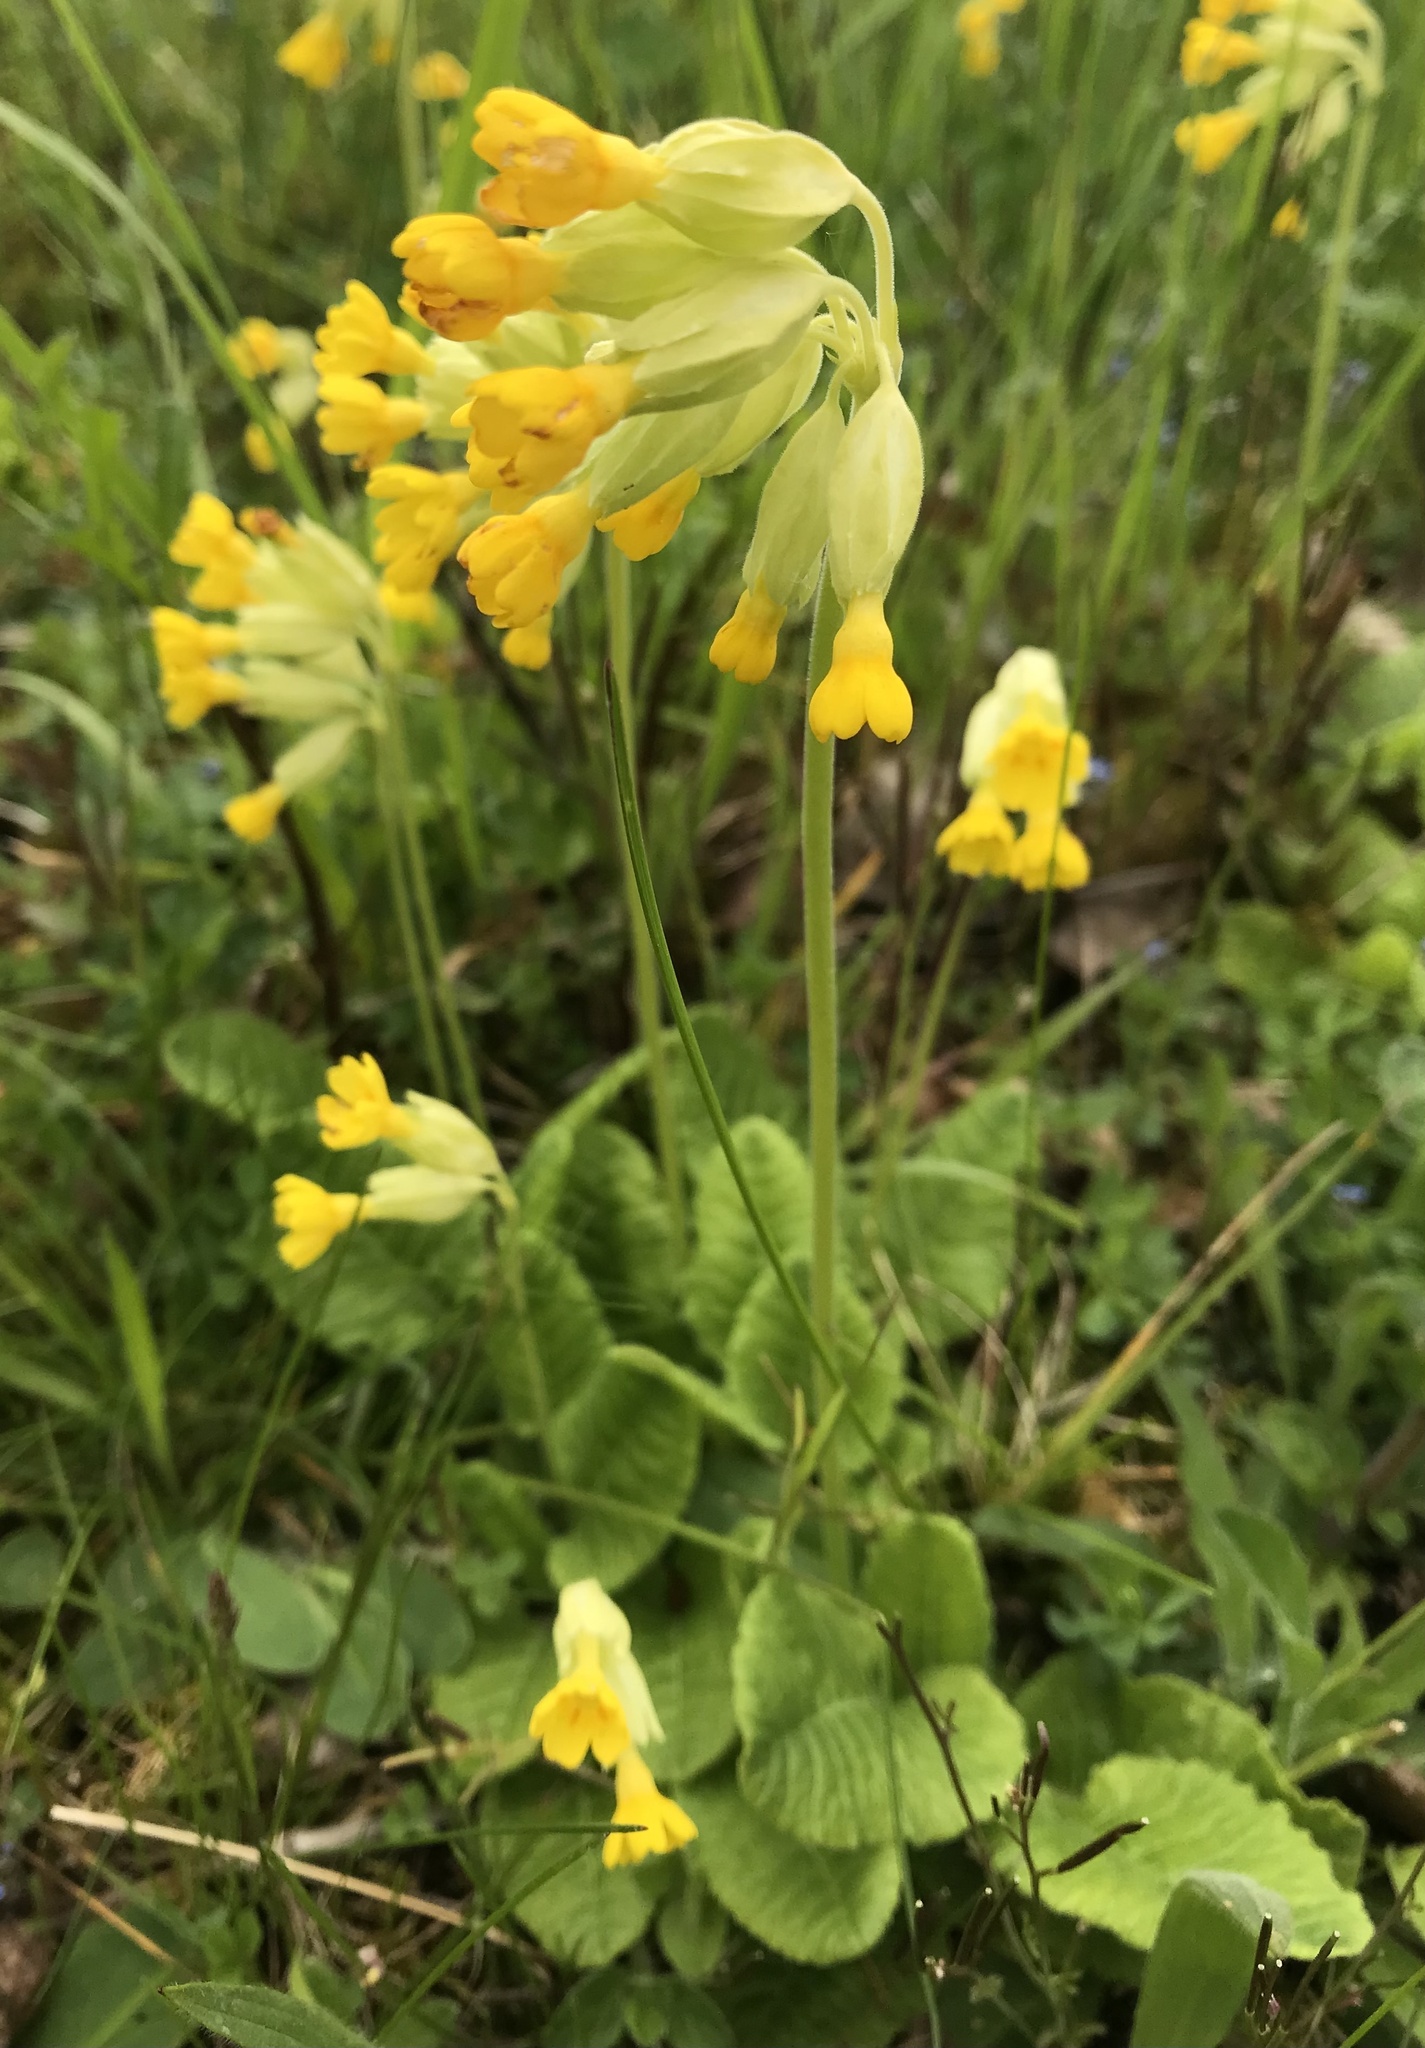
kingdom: Plantae
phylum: Tracheophyta
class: Magnoliopsida
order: Ericales
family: Primulaceae
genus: Primula
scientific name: Primula veris
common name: Cowslip
